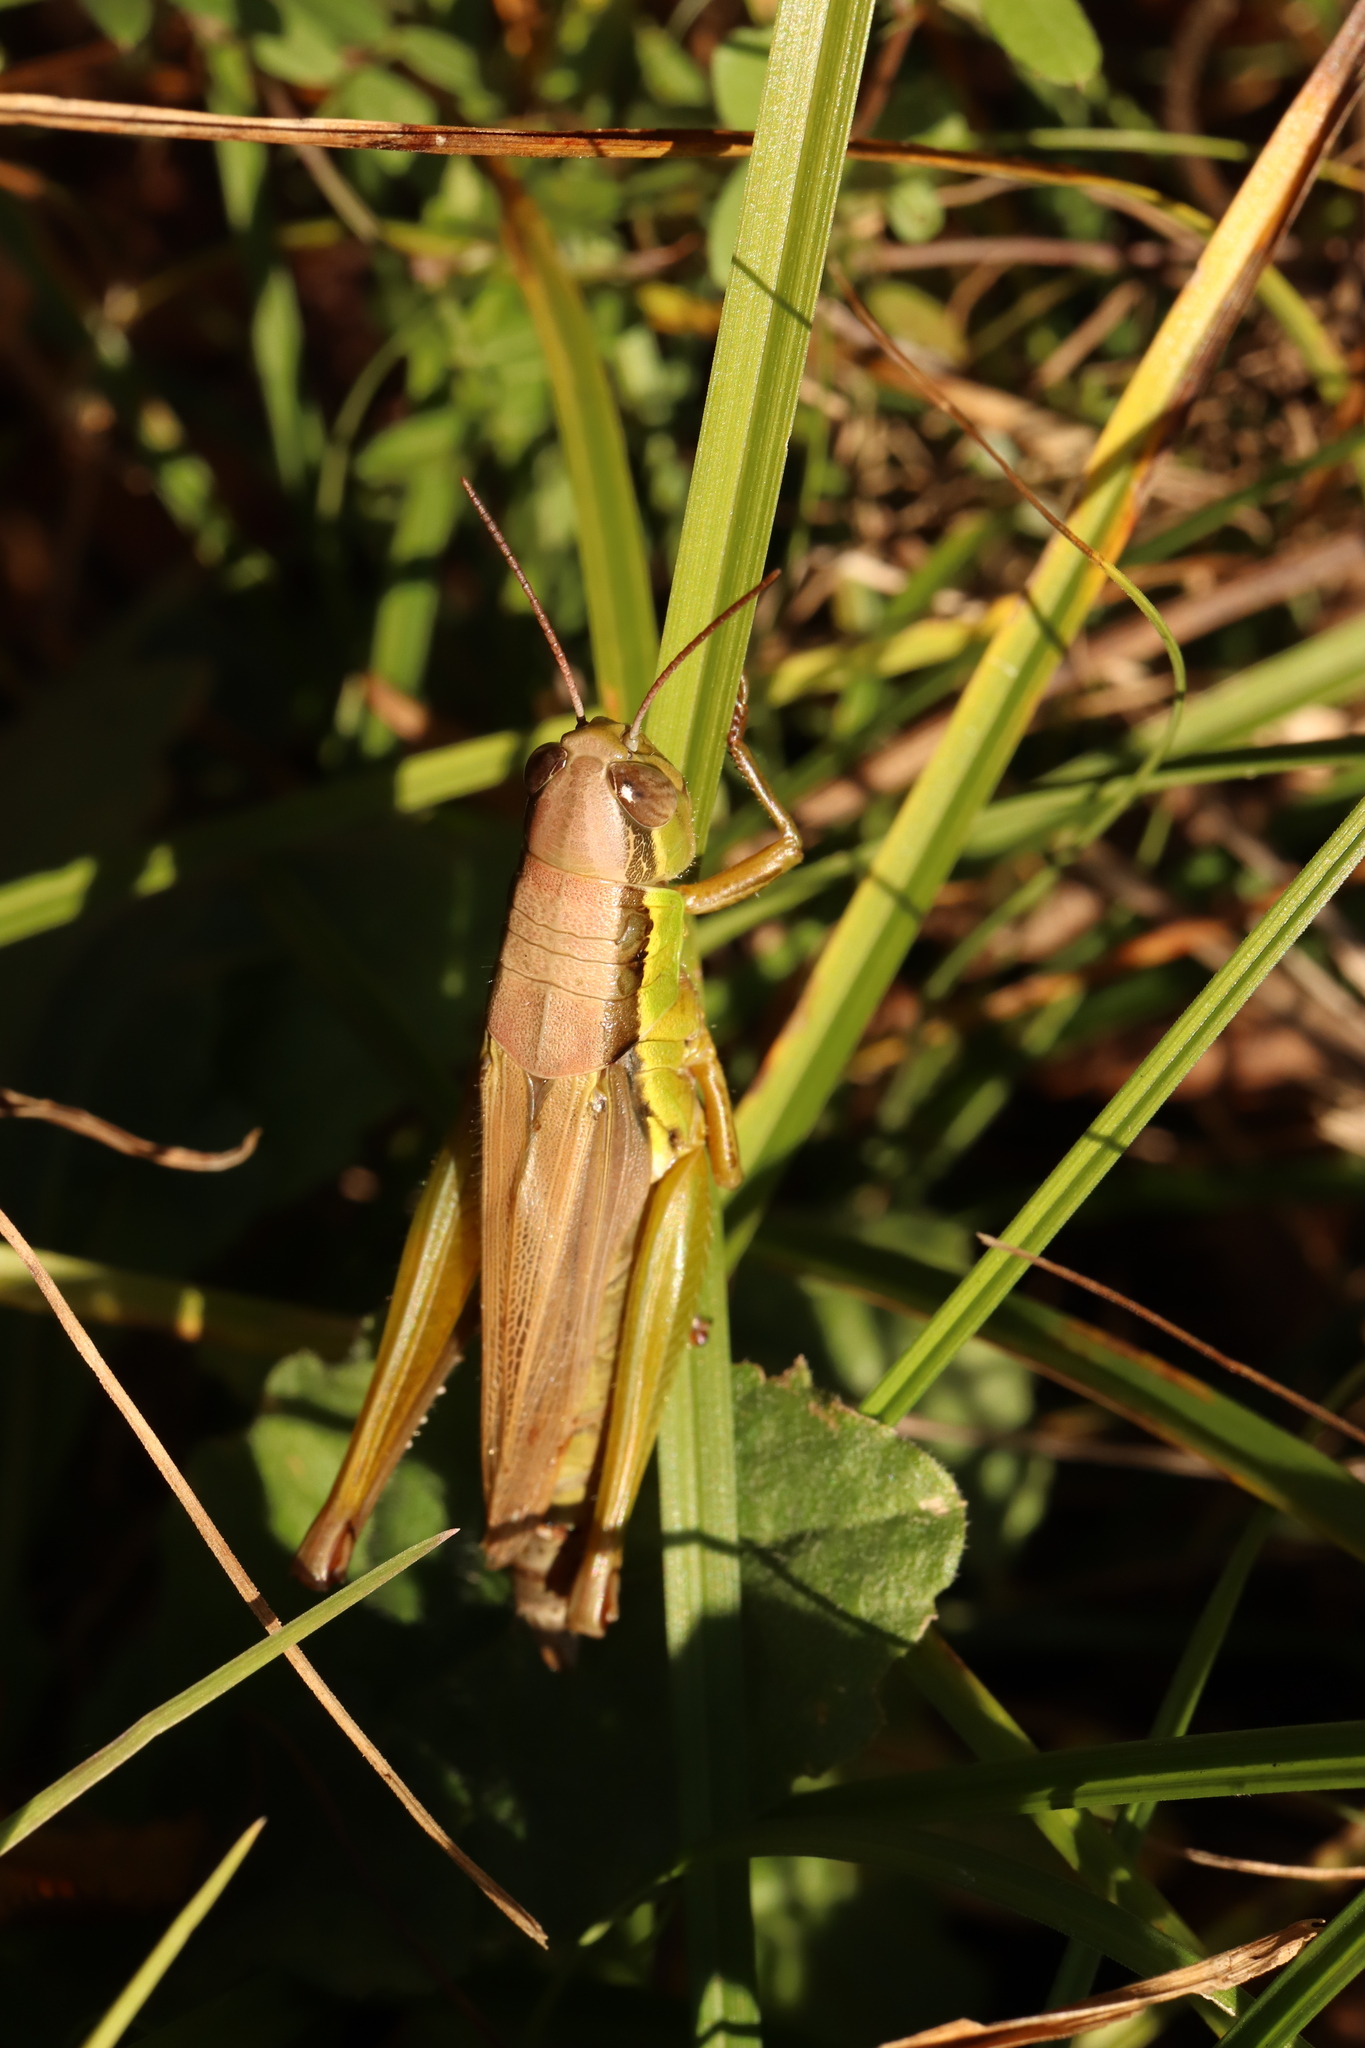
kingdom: Animalia
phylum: Arthropoda
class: Insecta
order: Orthoptera
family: Acrididae
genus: Oxya
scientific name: Oxya yezoensis
